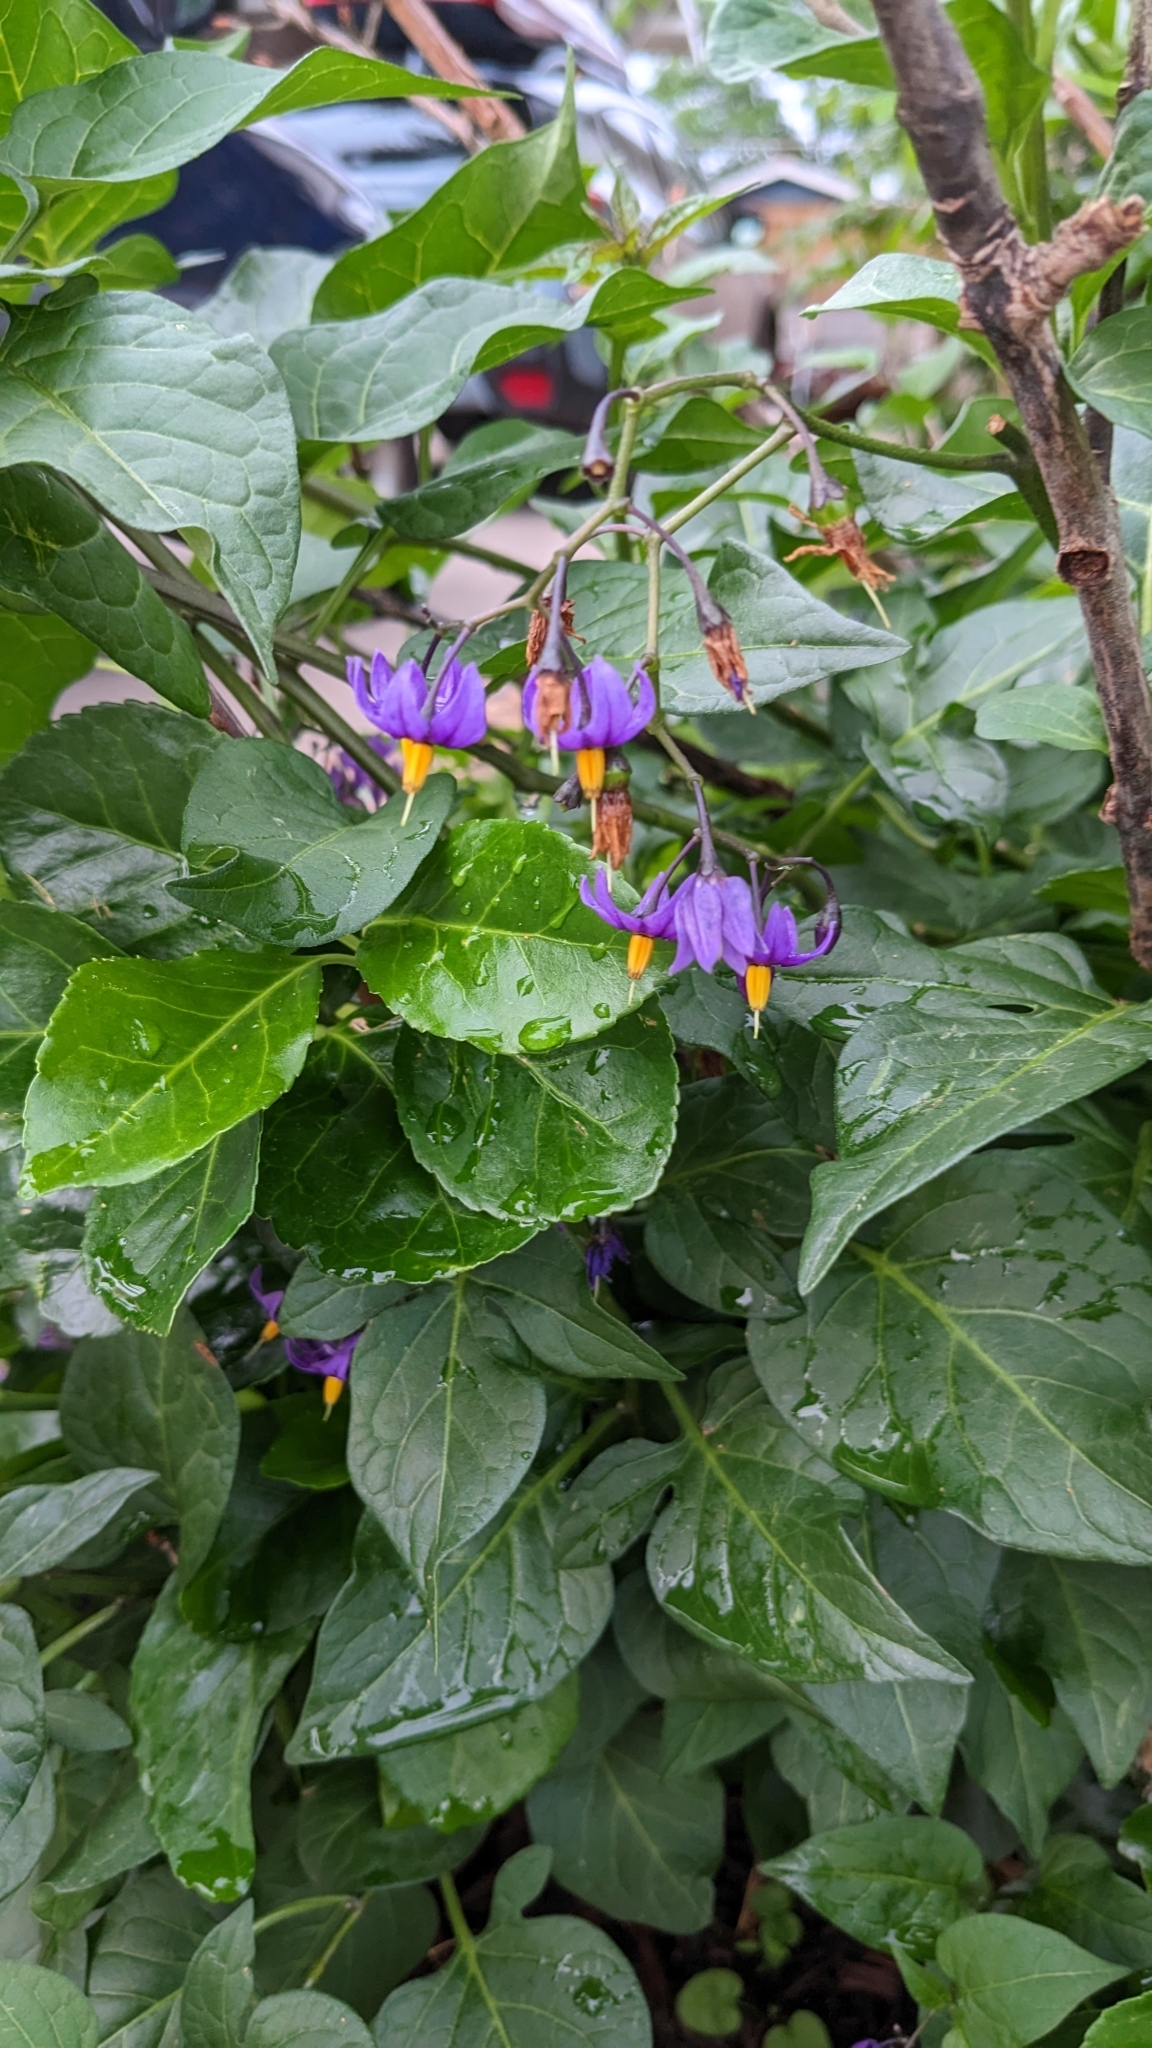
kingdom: Plantae
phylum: Tracheophyta
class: Magnoliopsida
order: Solanales
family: Solanaceae
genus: Solanum
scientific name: Solanum dulcamara
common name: Climbing nightshade
